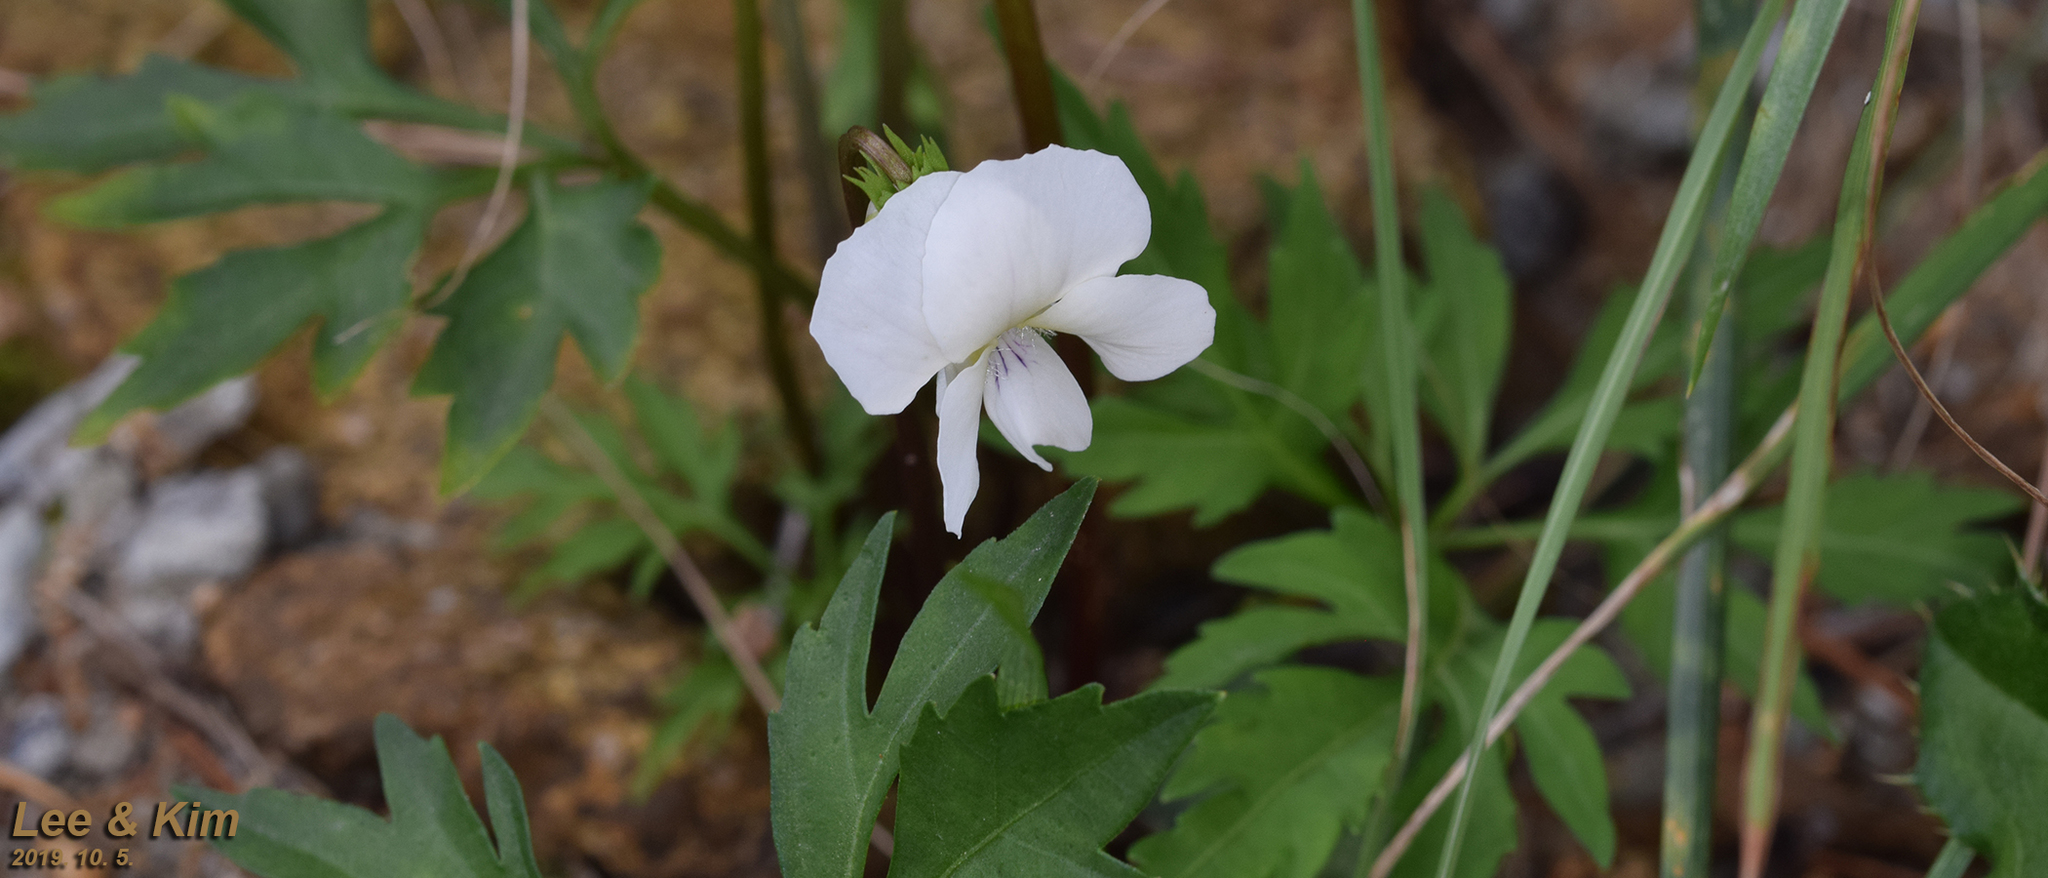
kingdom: Plantae
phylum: Tracheophyta
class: Magnoliopsida
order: Malpighiales
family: Violaceae
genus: Viola
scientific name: Viola albida
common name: Korean violet
